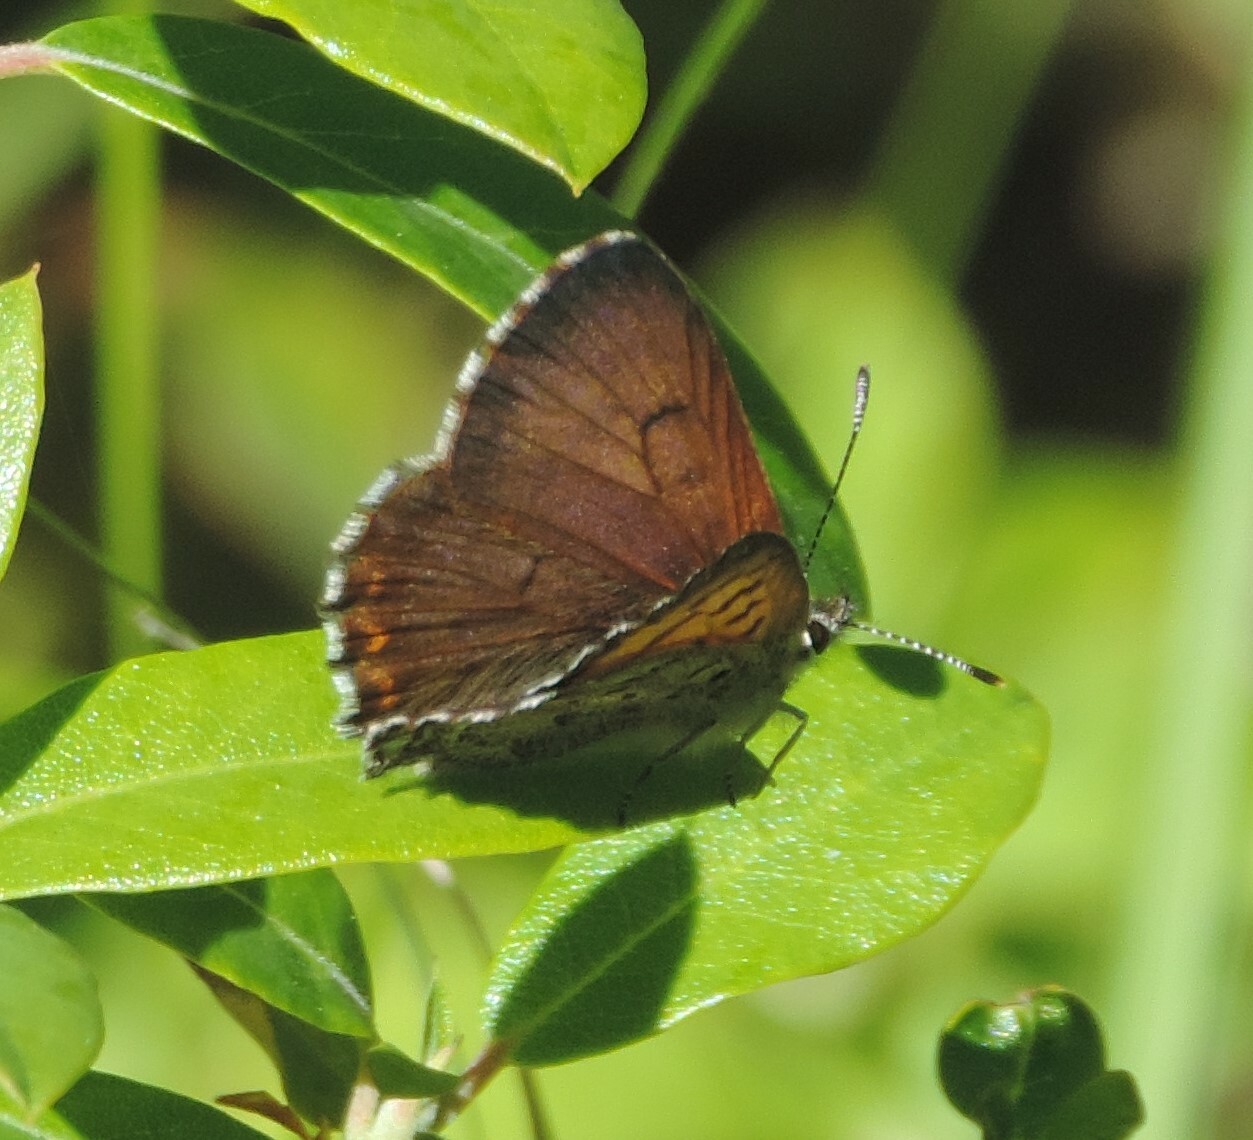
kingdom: Animalia
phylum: Arthropoda
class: Insecta
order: Lepidoptera
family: Lycaenidae
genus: Tharsalea
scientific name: Tharsalea mariposa
